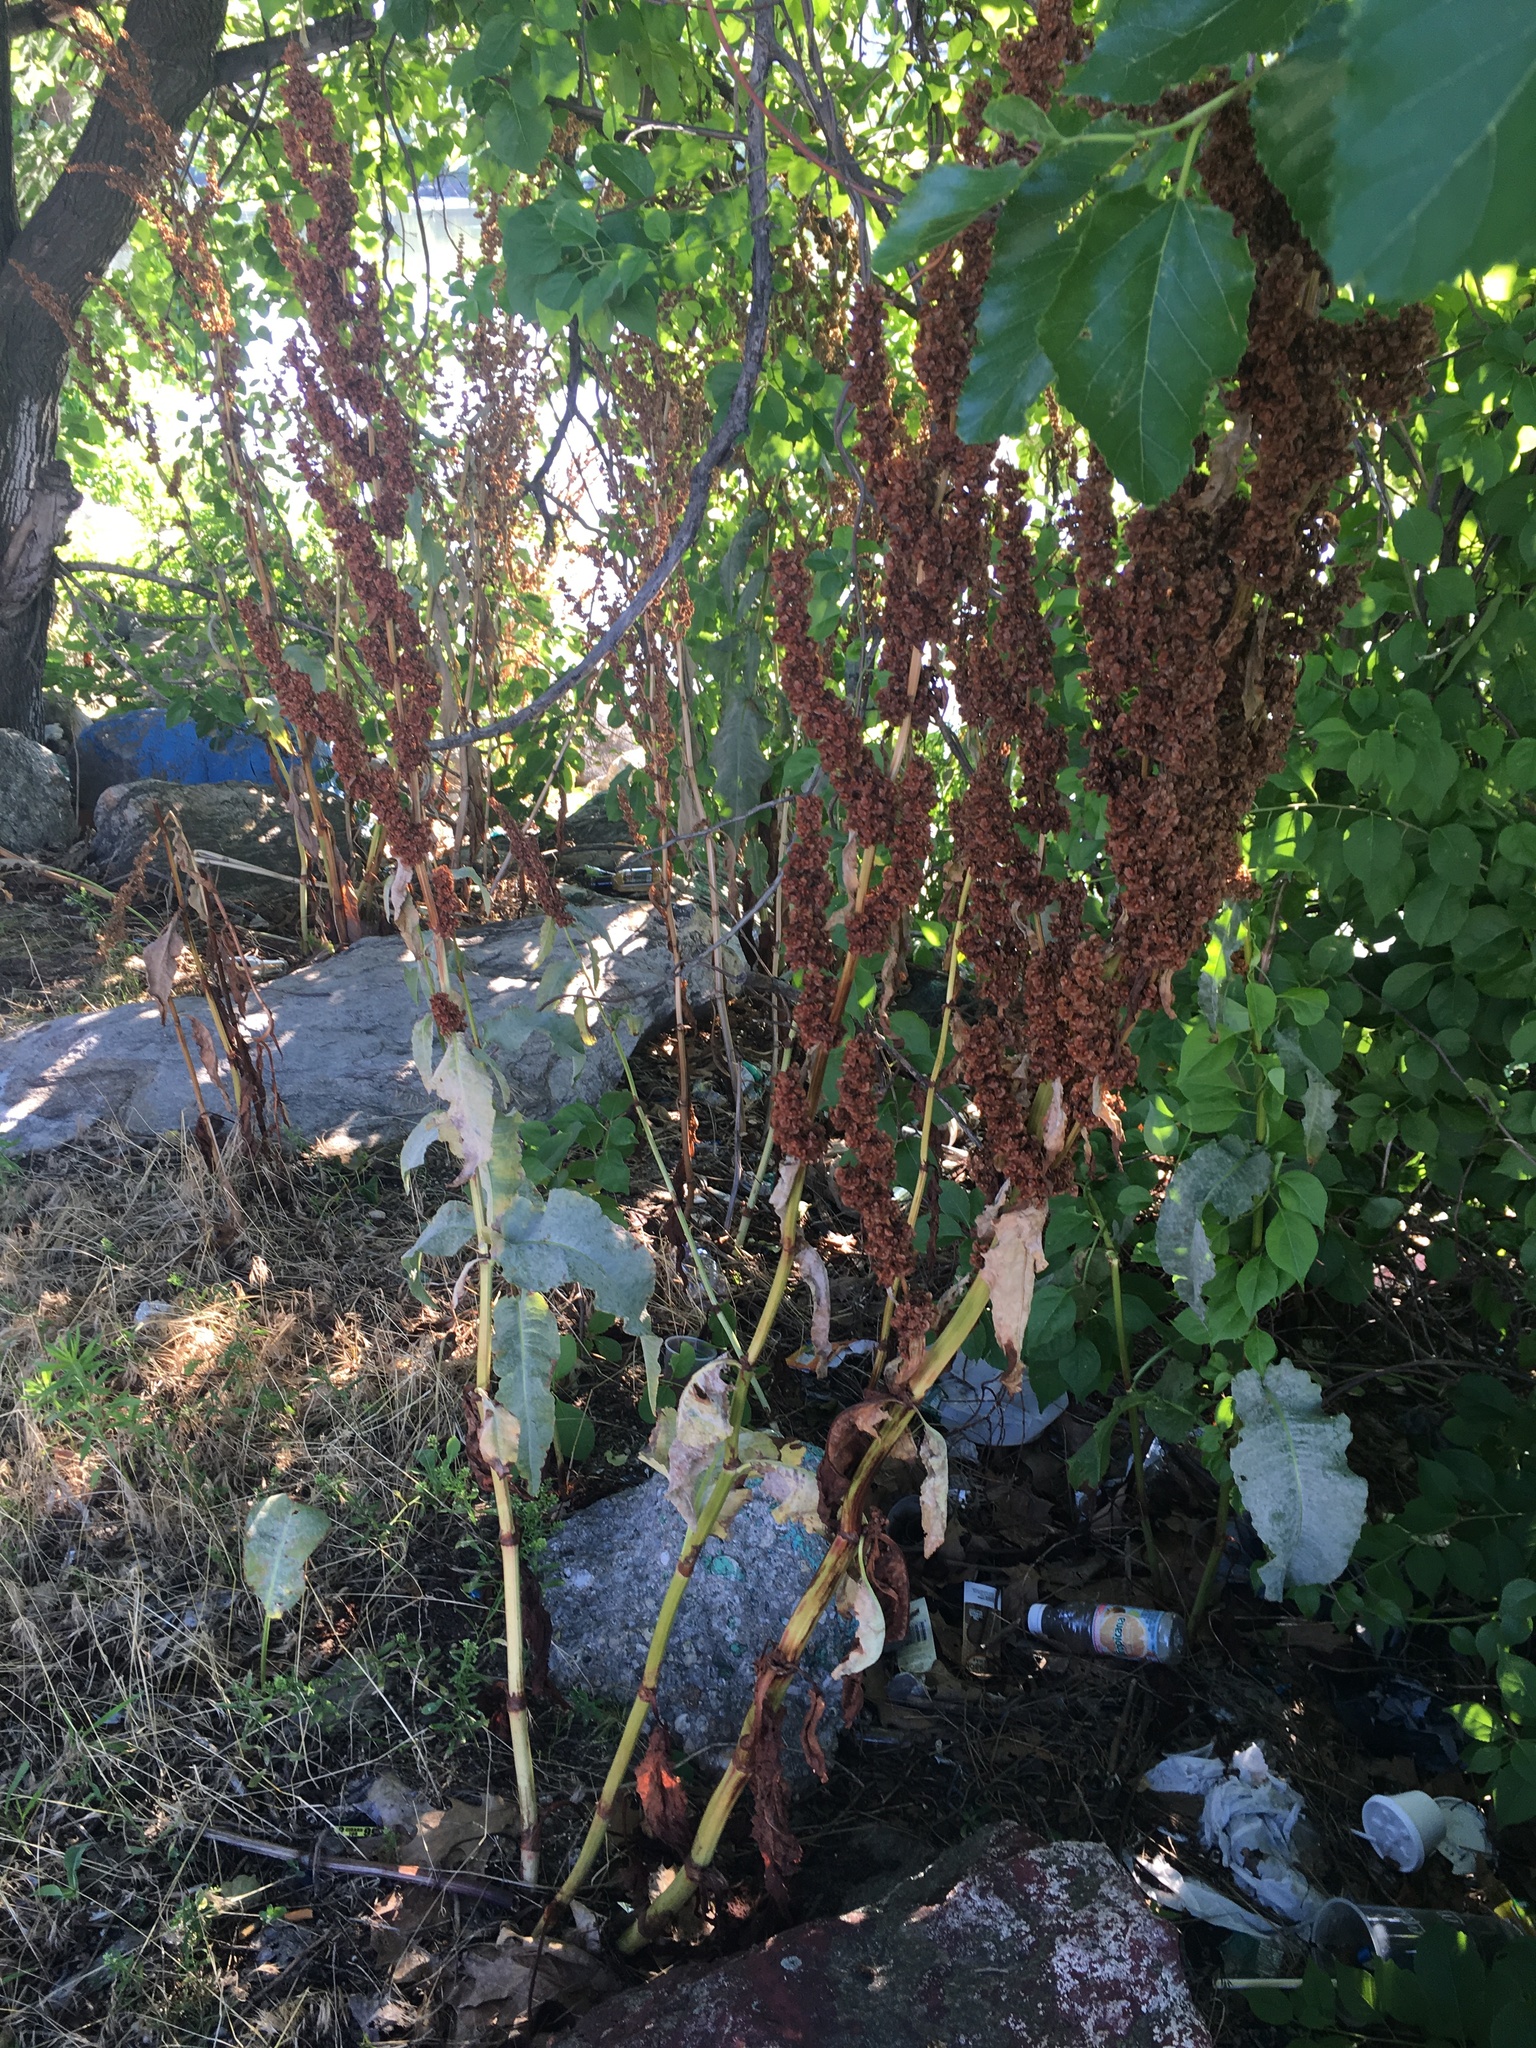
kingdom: Plantae
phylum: Tracheophyta
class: Magnoliopsida
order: Caryophyllales
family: Polygonaceae
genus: Rumex
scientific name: Rumex patientia
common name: Patience dock
